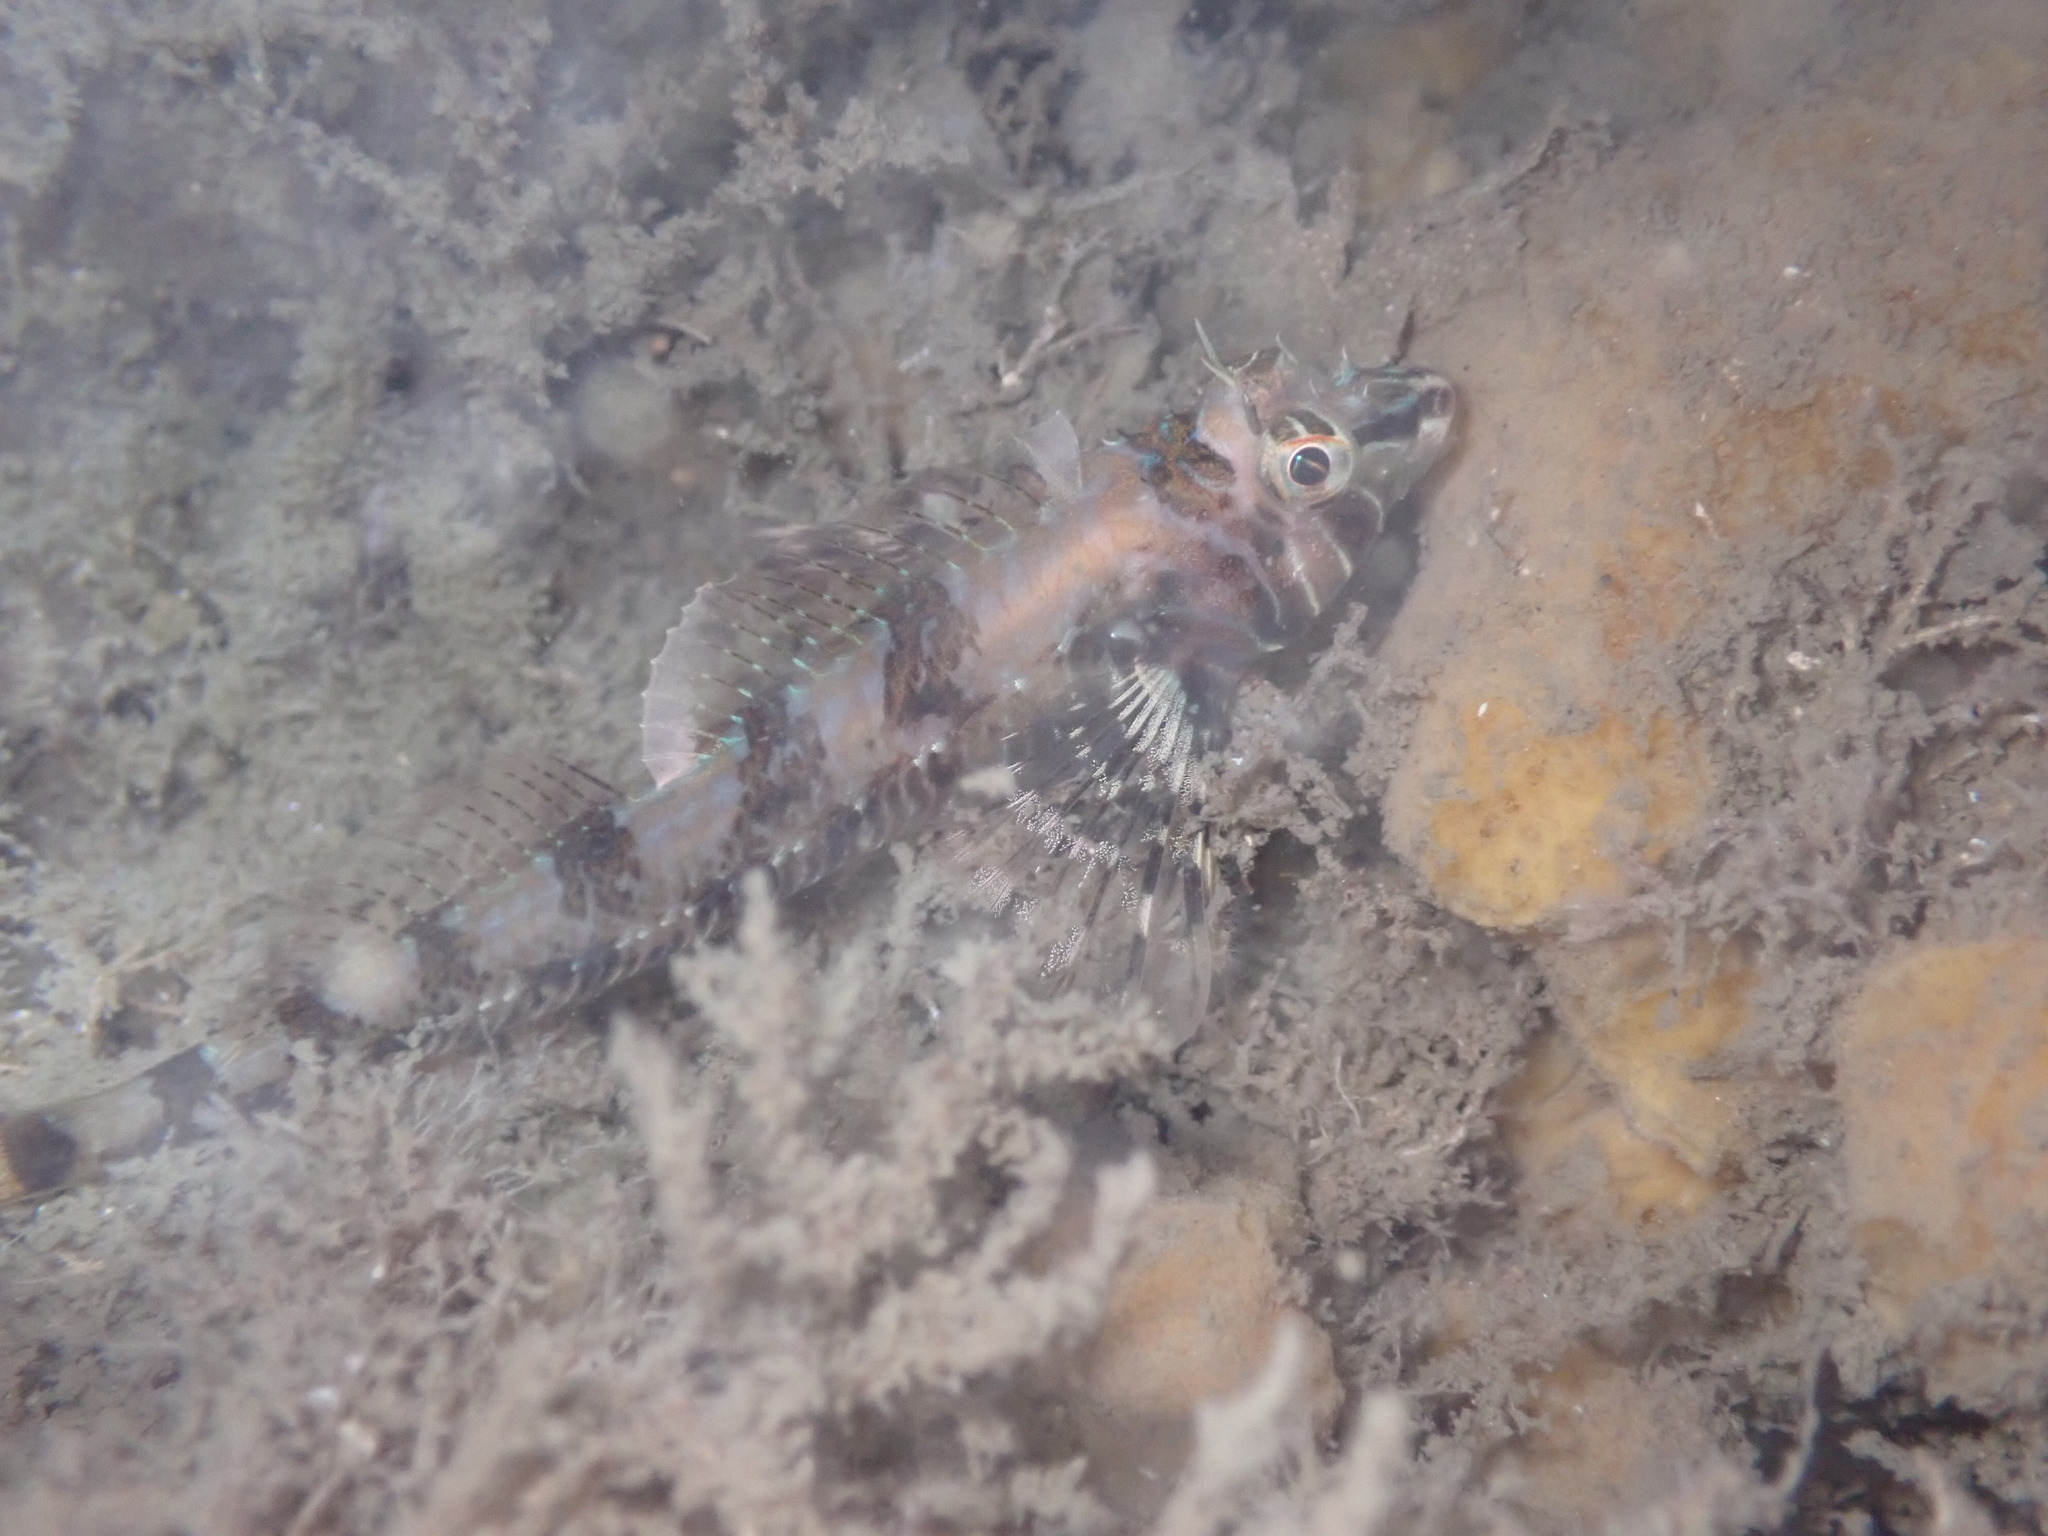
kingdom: Animalia
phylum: Chordata
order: Scorpaeniformes
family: Cottidae
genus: Jordania
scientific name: Jordania zonope
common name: Longfin sculpin
